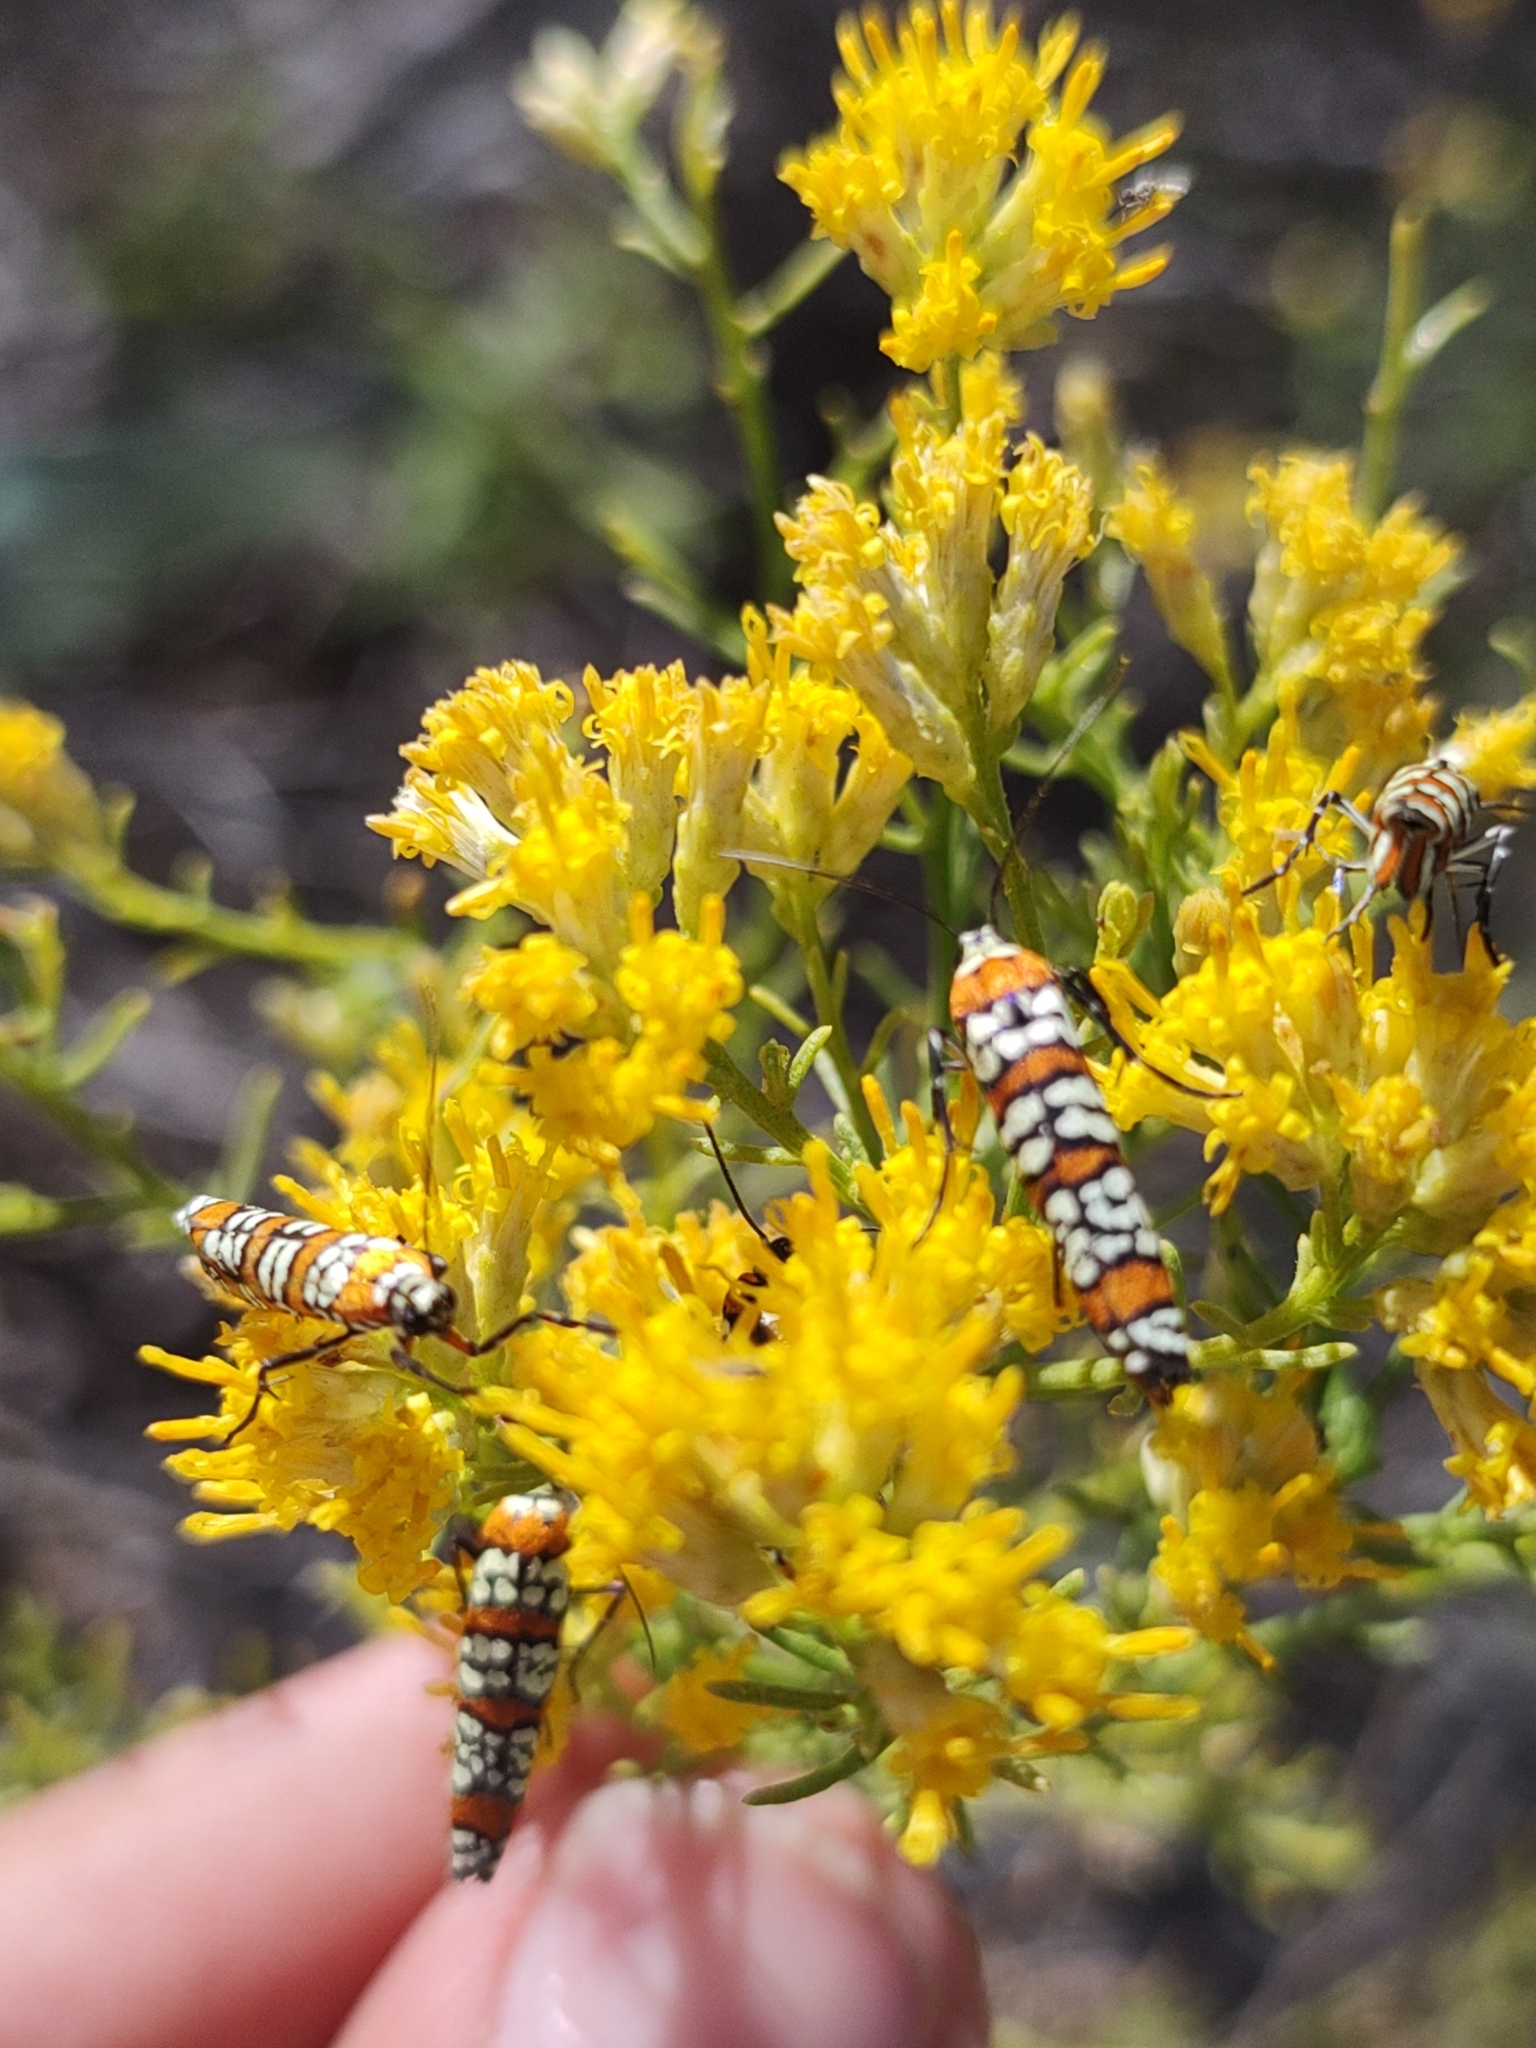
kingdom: Plantae
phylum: Tracheophyta
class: Magnoliopsida
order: Asterales
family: Asteraceae
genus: Gundlachia
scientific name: Gundlachia diffusa
